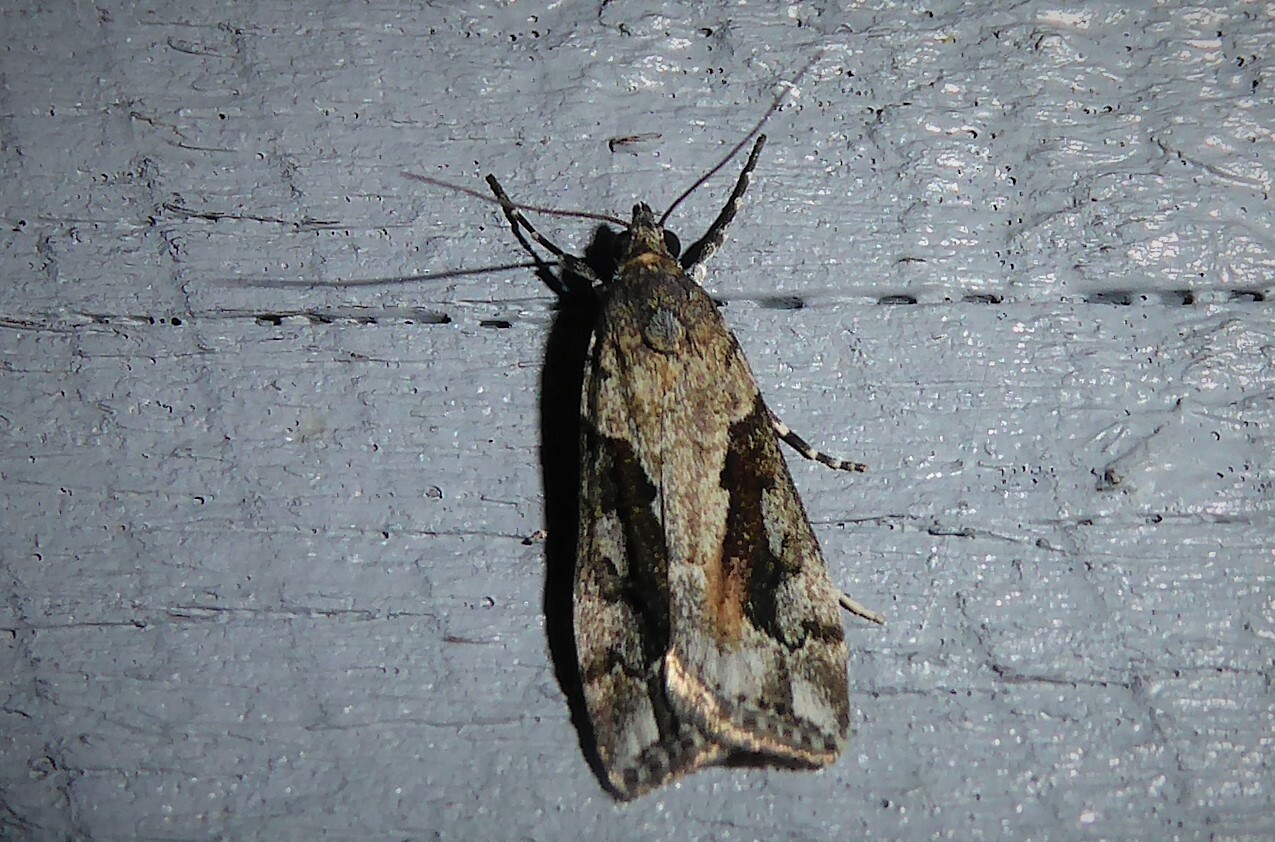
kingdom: Animalia
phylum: Arthropoda
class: Insecta
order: Lepidoptera
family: Crambidae
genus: Eudonia
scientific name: Eudonia submarginalis
